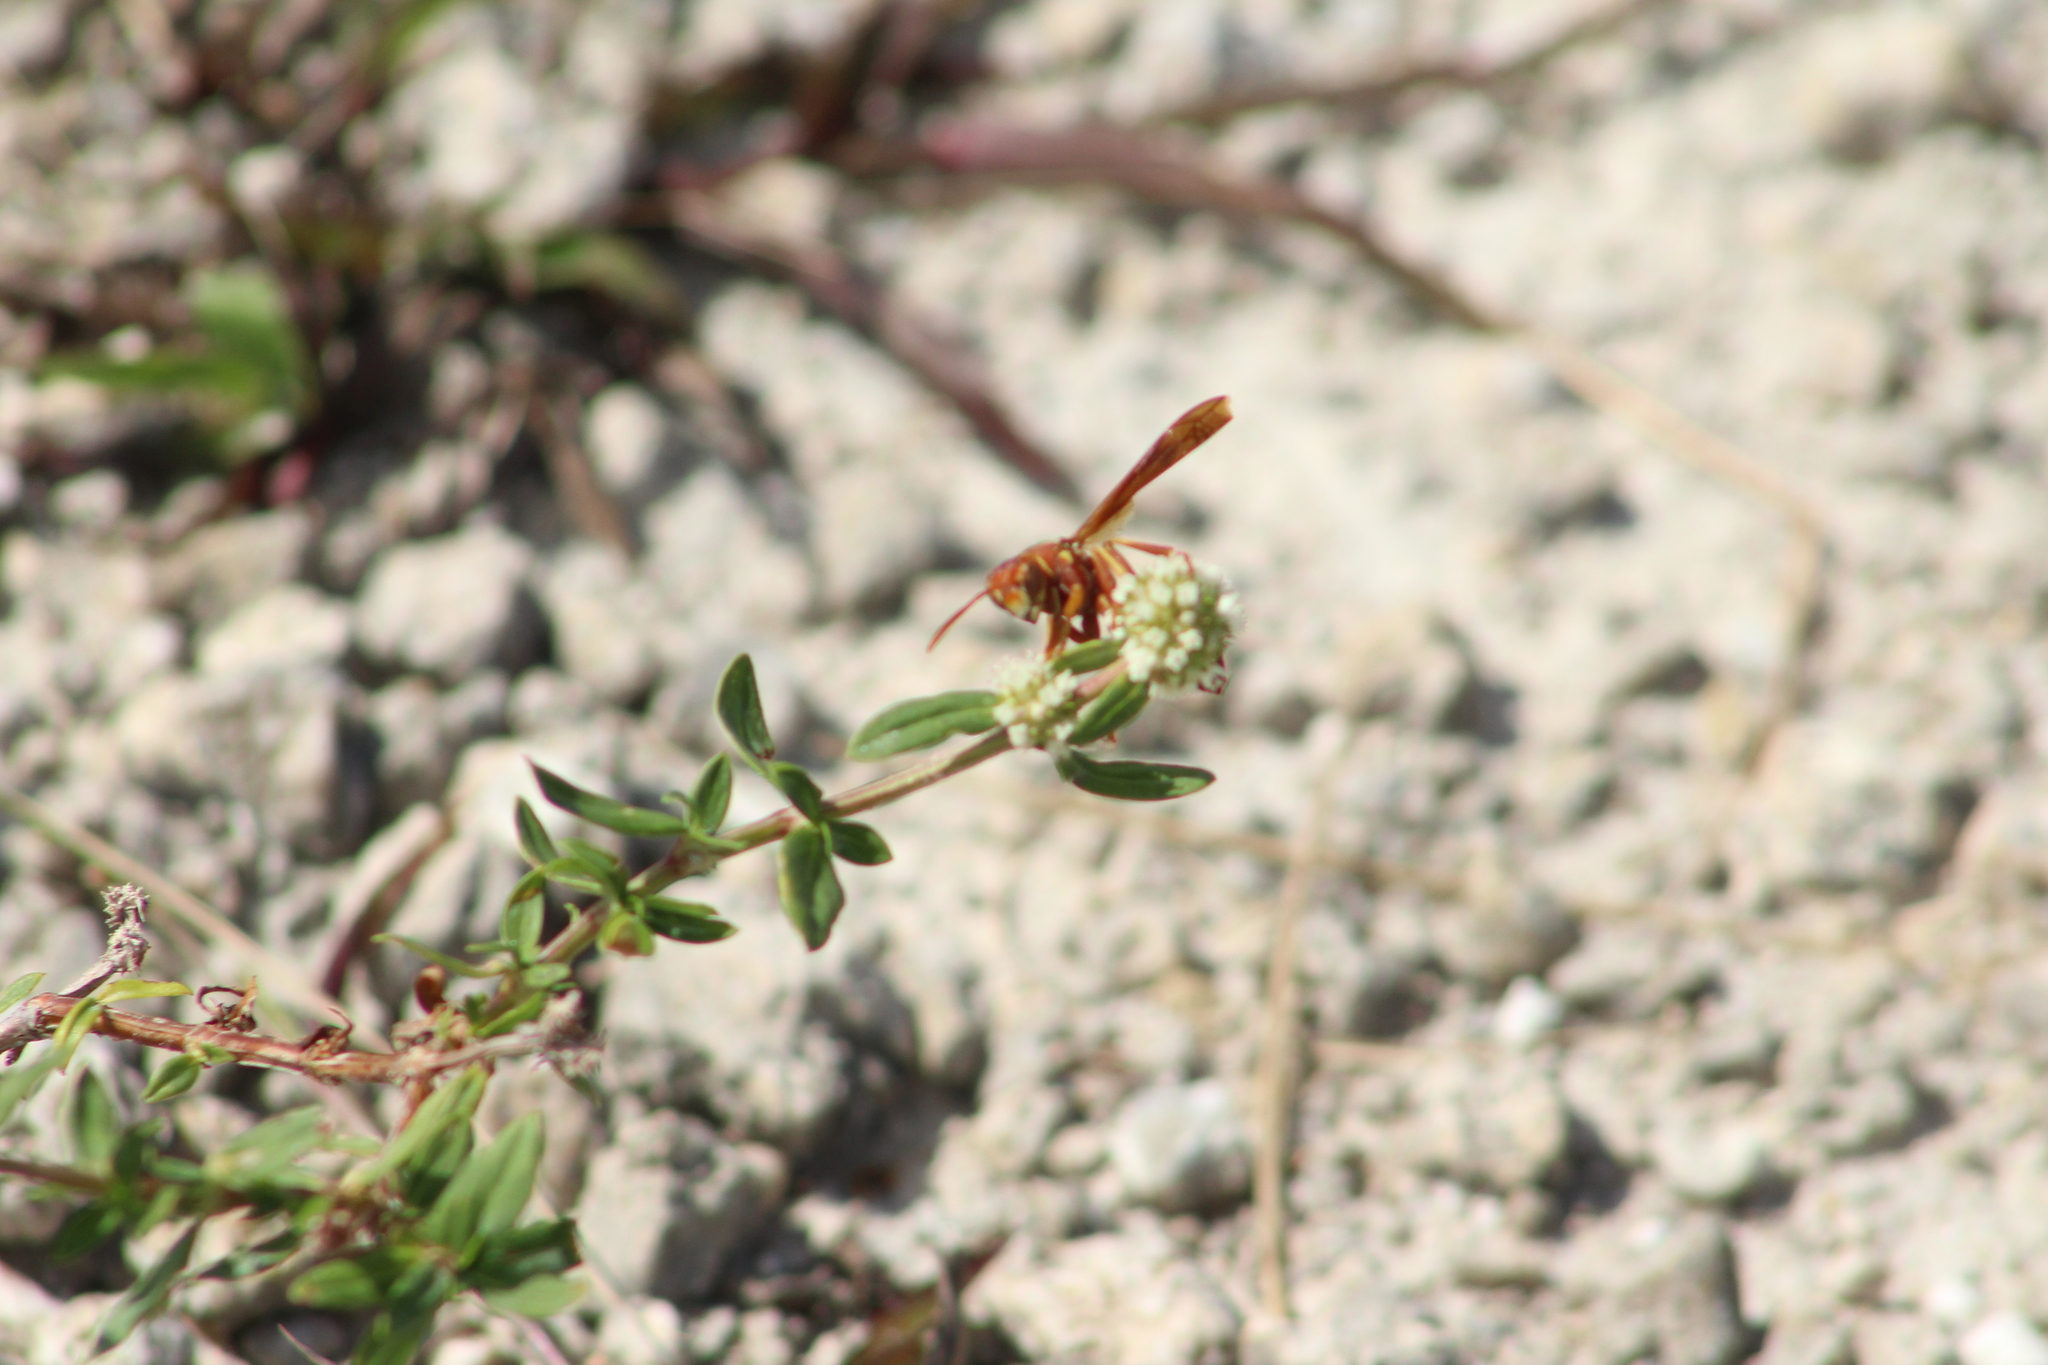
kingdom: Animalia
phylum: Arthropoda
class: Insecta
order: Hymenoptera
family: Eumenidae
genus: Polistes
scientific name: Polistes bellicosus
